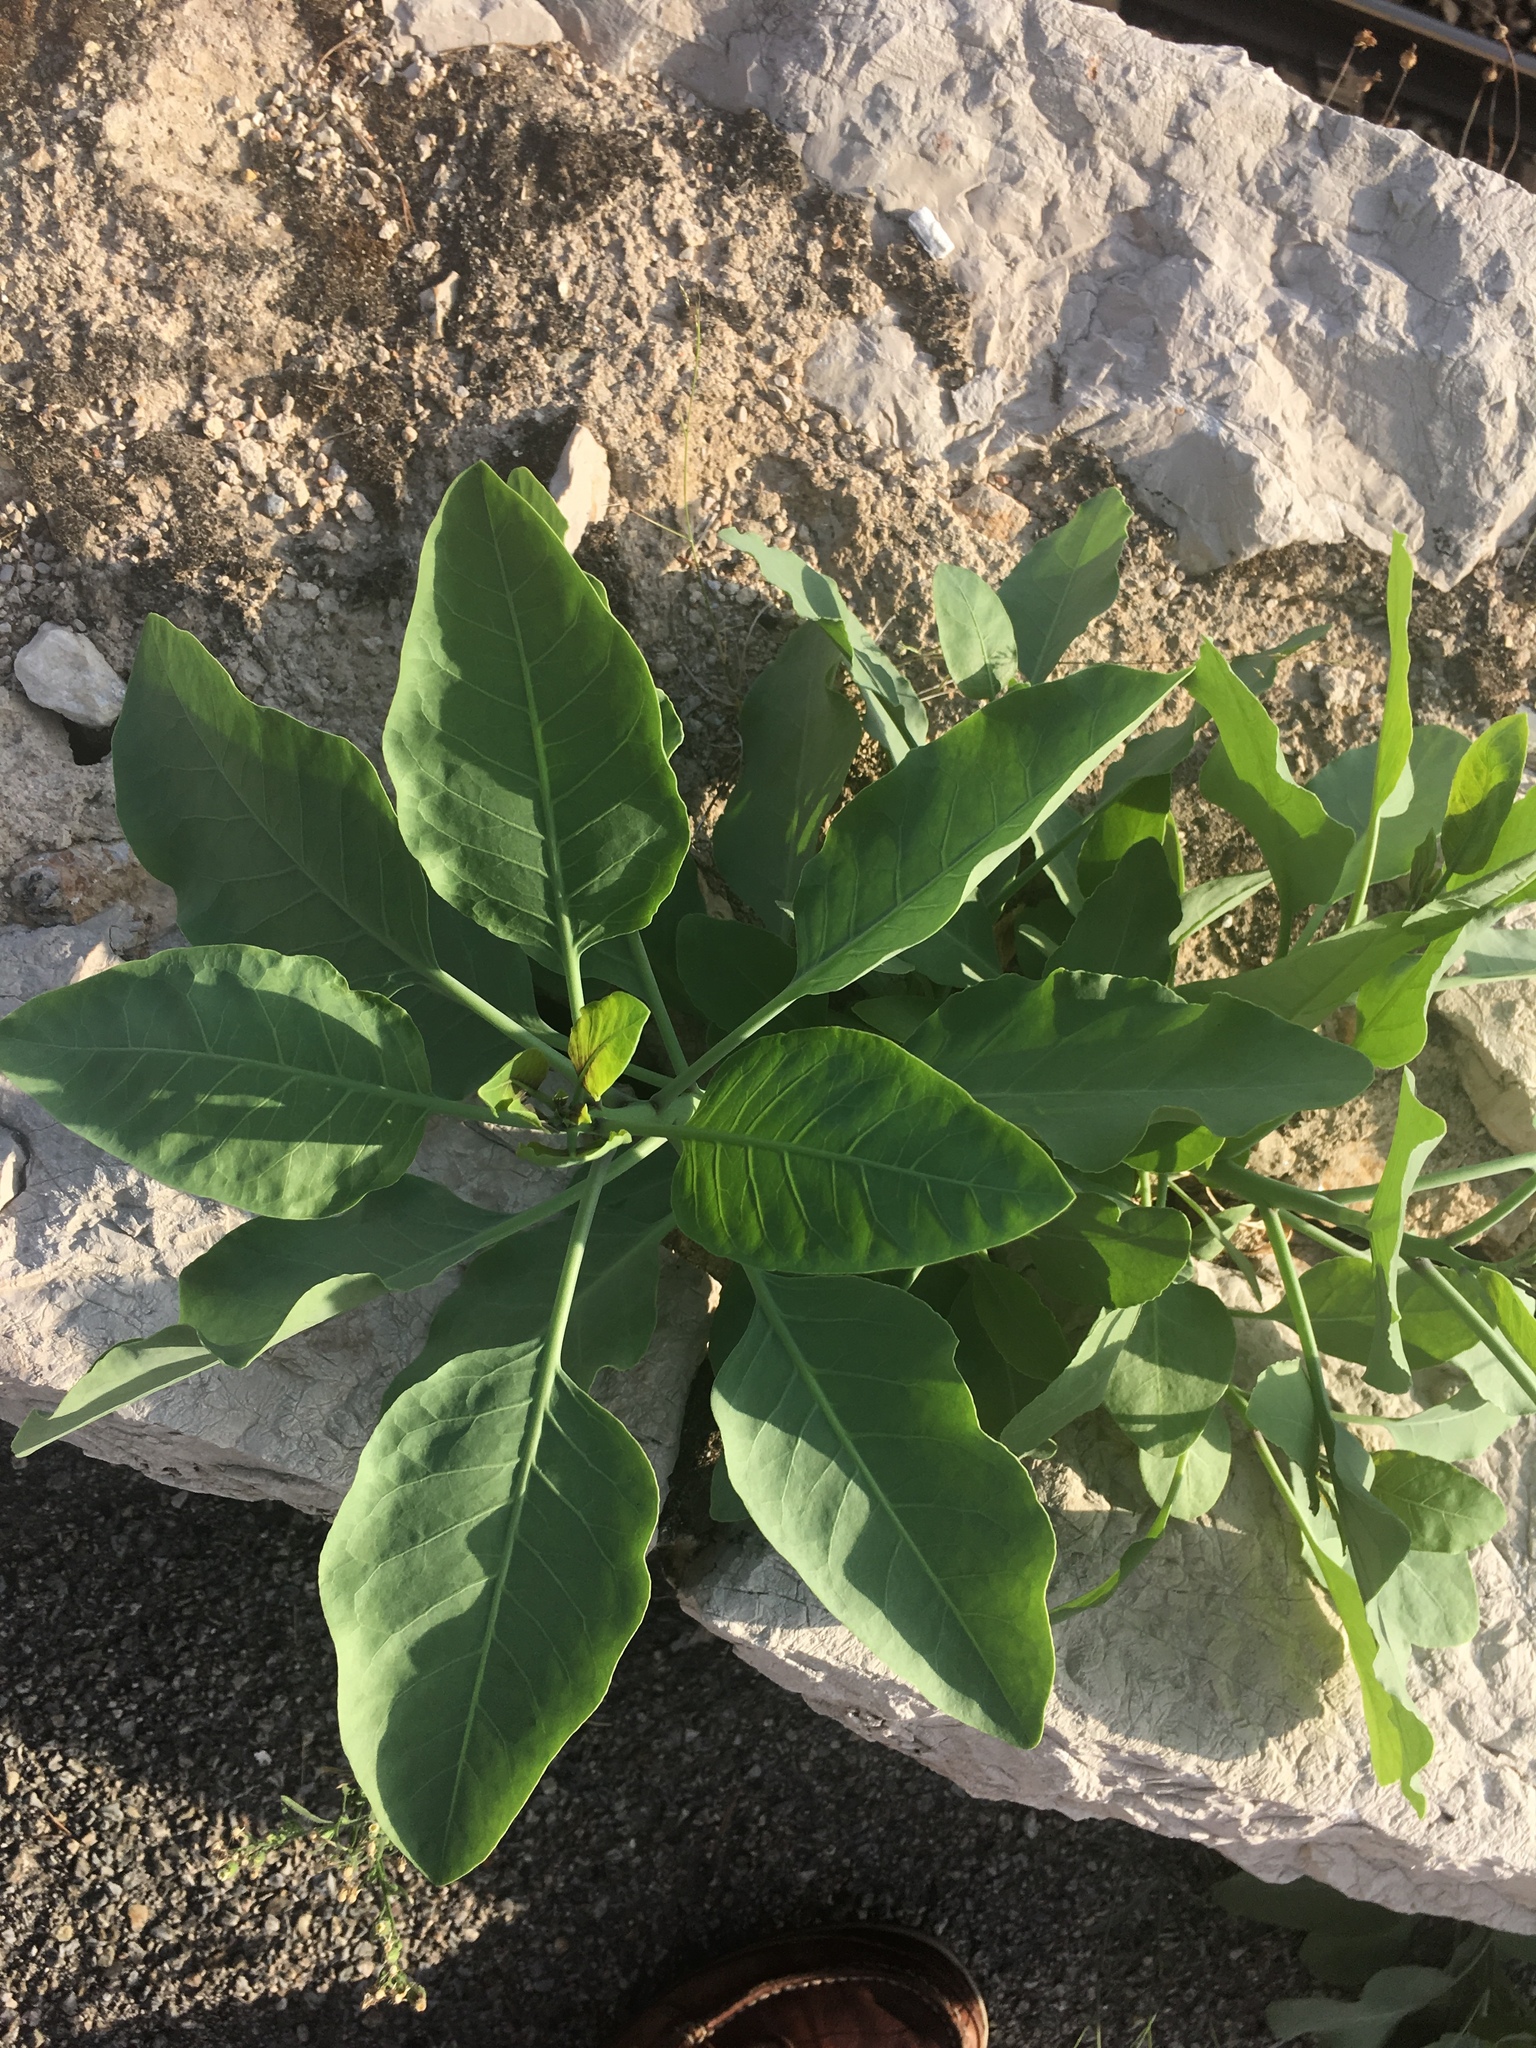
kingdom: Plantae
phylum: Tracheophyta
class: Magnoliopsida
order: Solanales
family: Solanaceae
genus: Nicotiana
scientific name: Nicotiana glauca
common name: Tree tobacco
